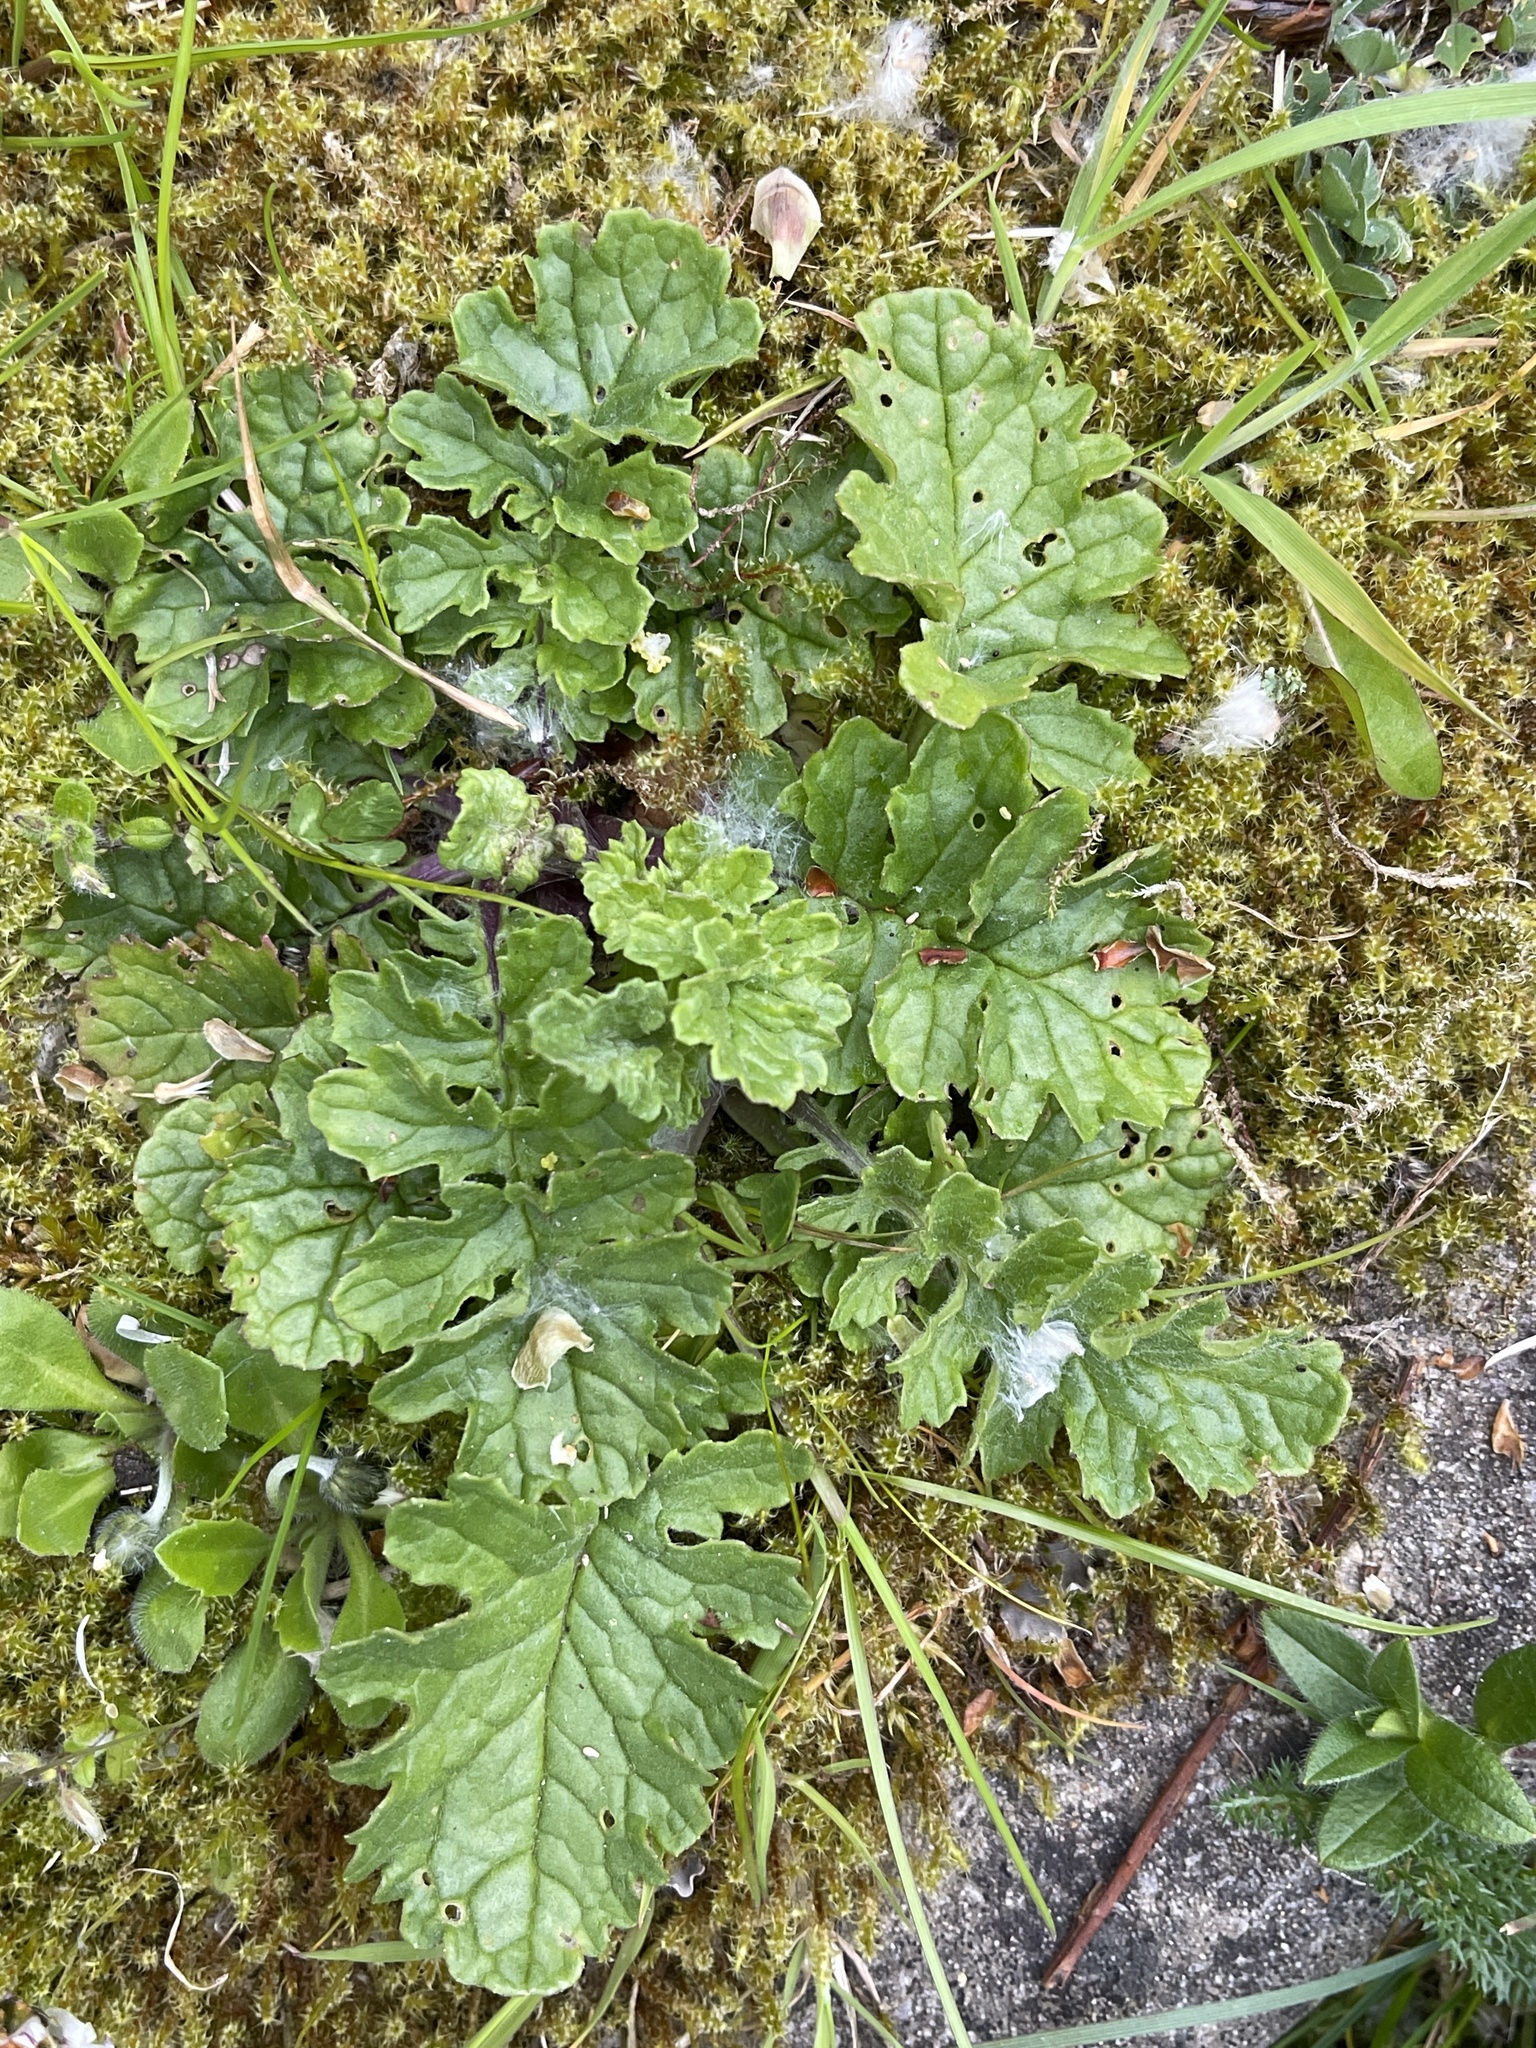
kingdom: Plantae
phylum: Tracheophyta
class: Magnoliopsida
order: Asterales
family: Asteraceae
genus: Jacobaea
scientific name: Jacobaea vulgaris
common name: Stinking willie
